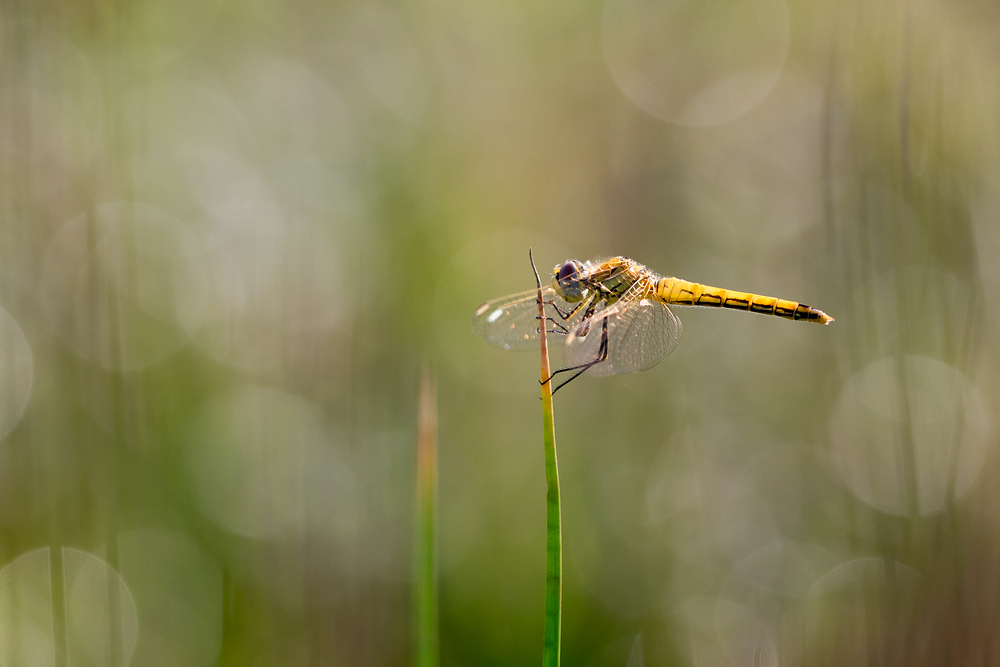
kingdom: Animalia
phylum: Arthropoda
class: Insecta
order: Odonata
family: Libellulidae
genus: Sympetrum
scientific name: Sympetrum fonscolombii
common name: Red-veined darter
